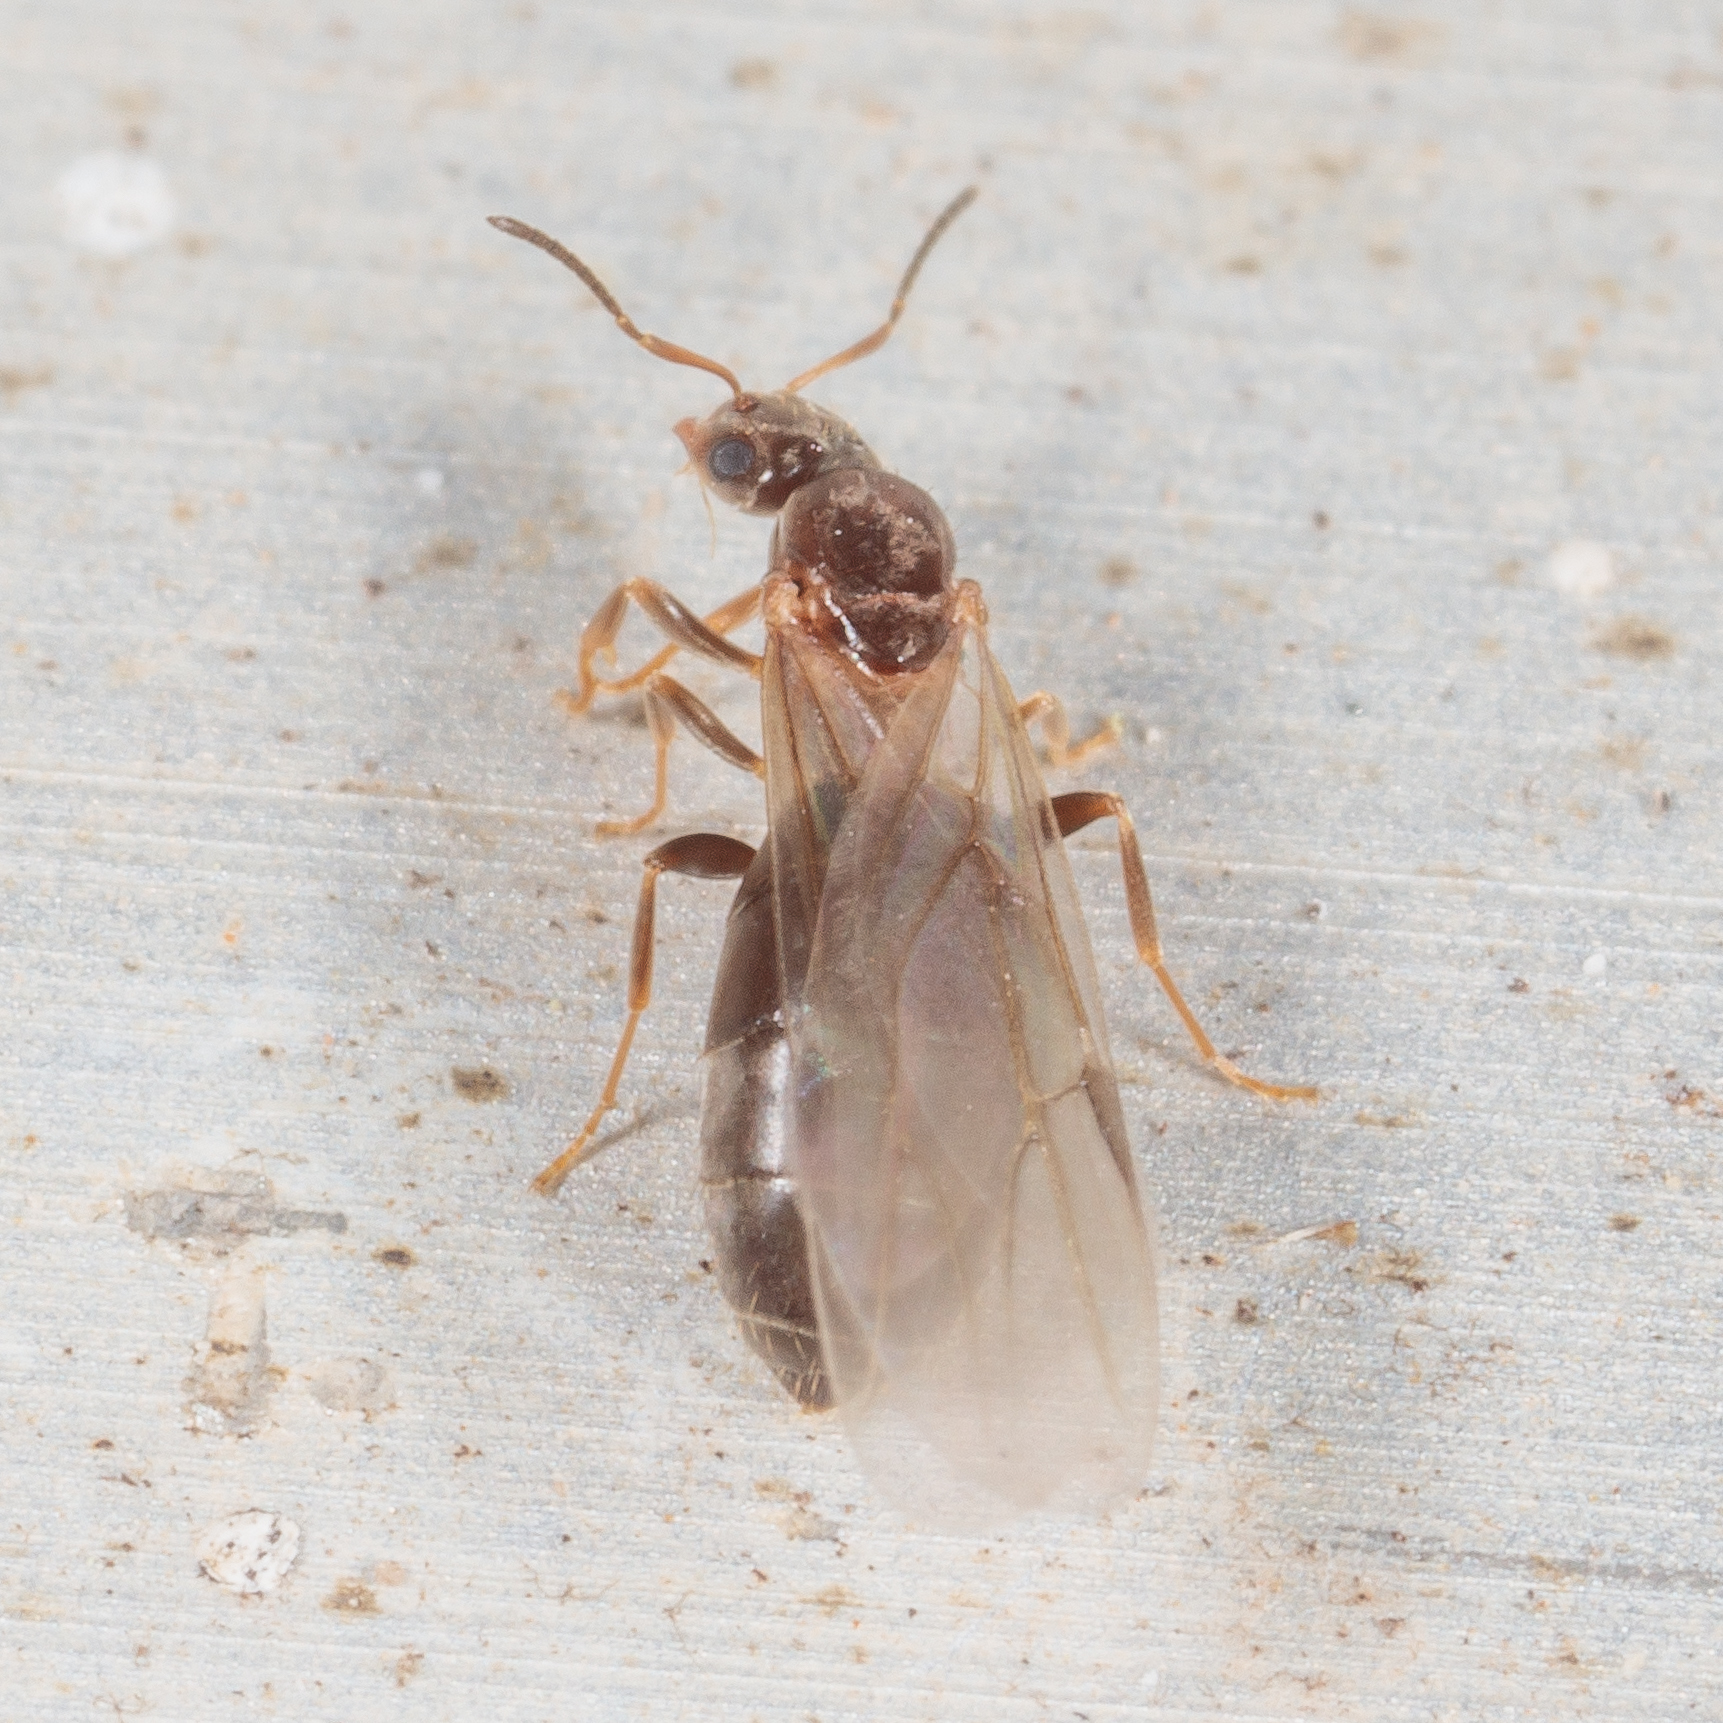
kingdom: Animalia
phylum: Arthropoda
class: Insecta
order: Hymenoptera
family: Formicidae
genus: Brachymyrmex
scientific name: Brachymyrmex patagonicus
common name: Dark rover ant
